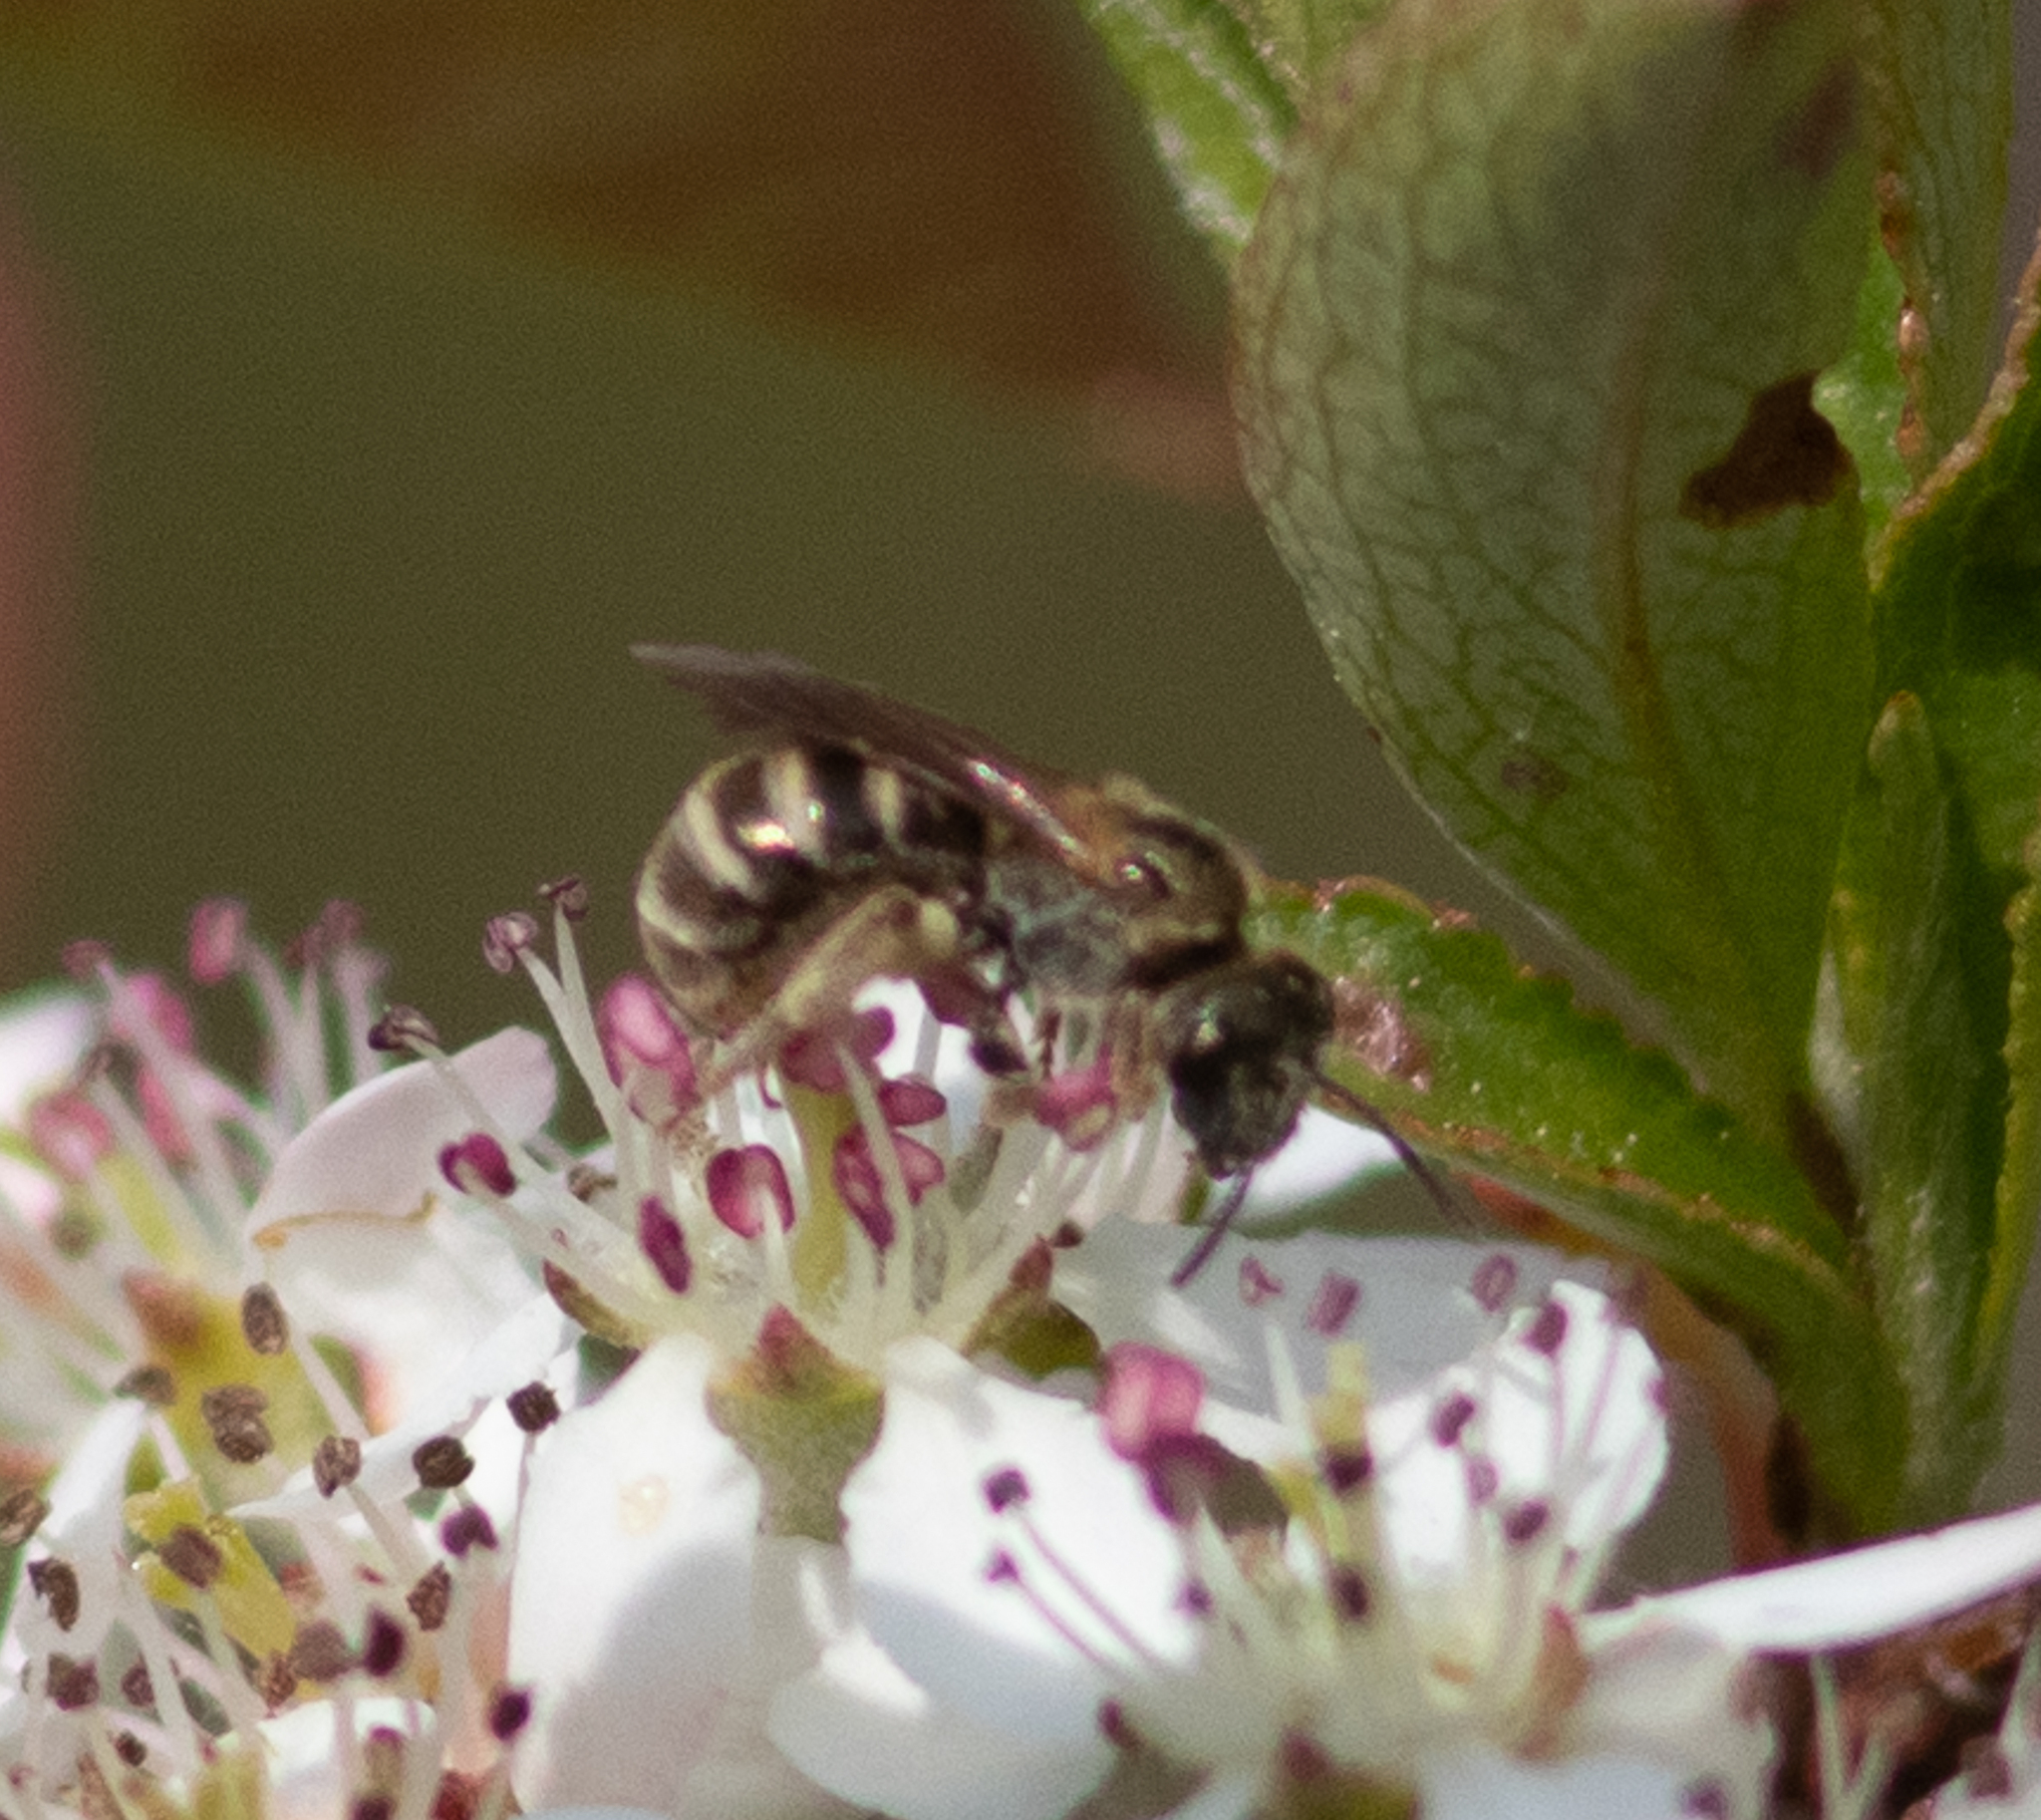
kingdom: Animalia
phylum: Arthropoda
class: Insecta
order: Hymenoptera
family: Halictidae
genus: Halictus
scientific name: Halictus confusus
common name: Southern bronze furrow bee
